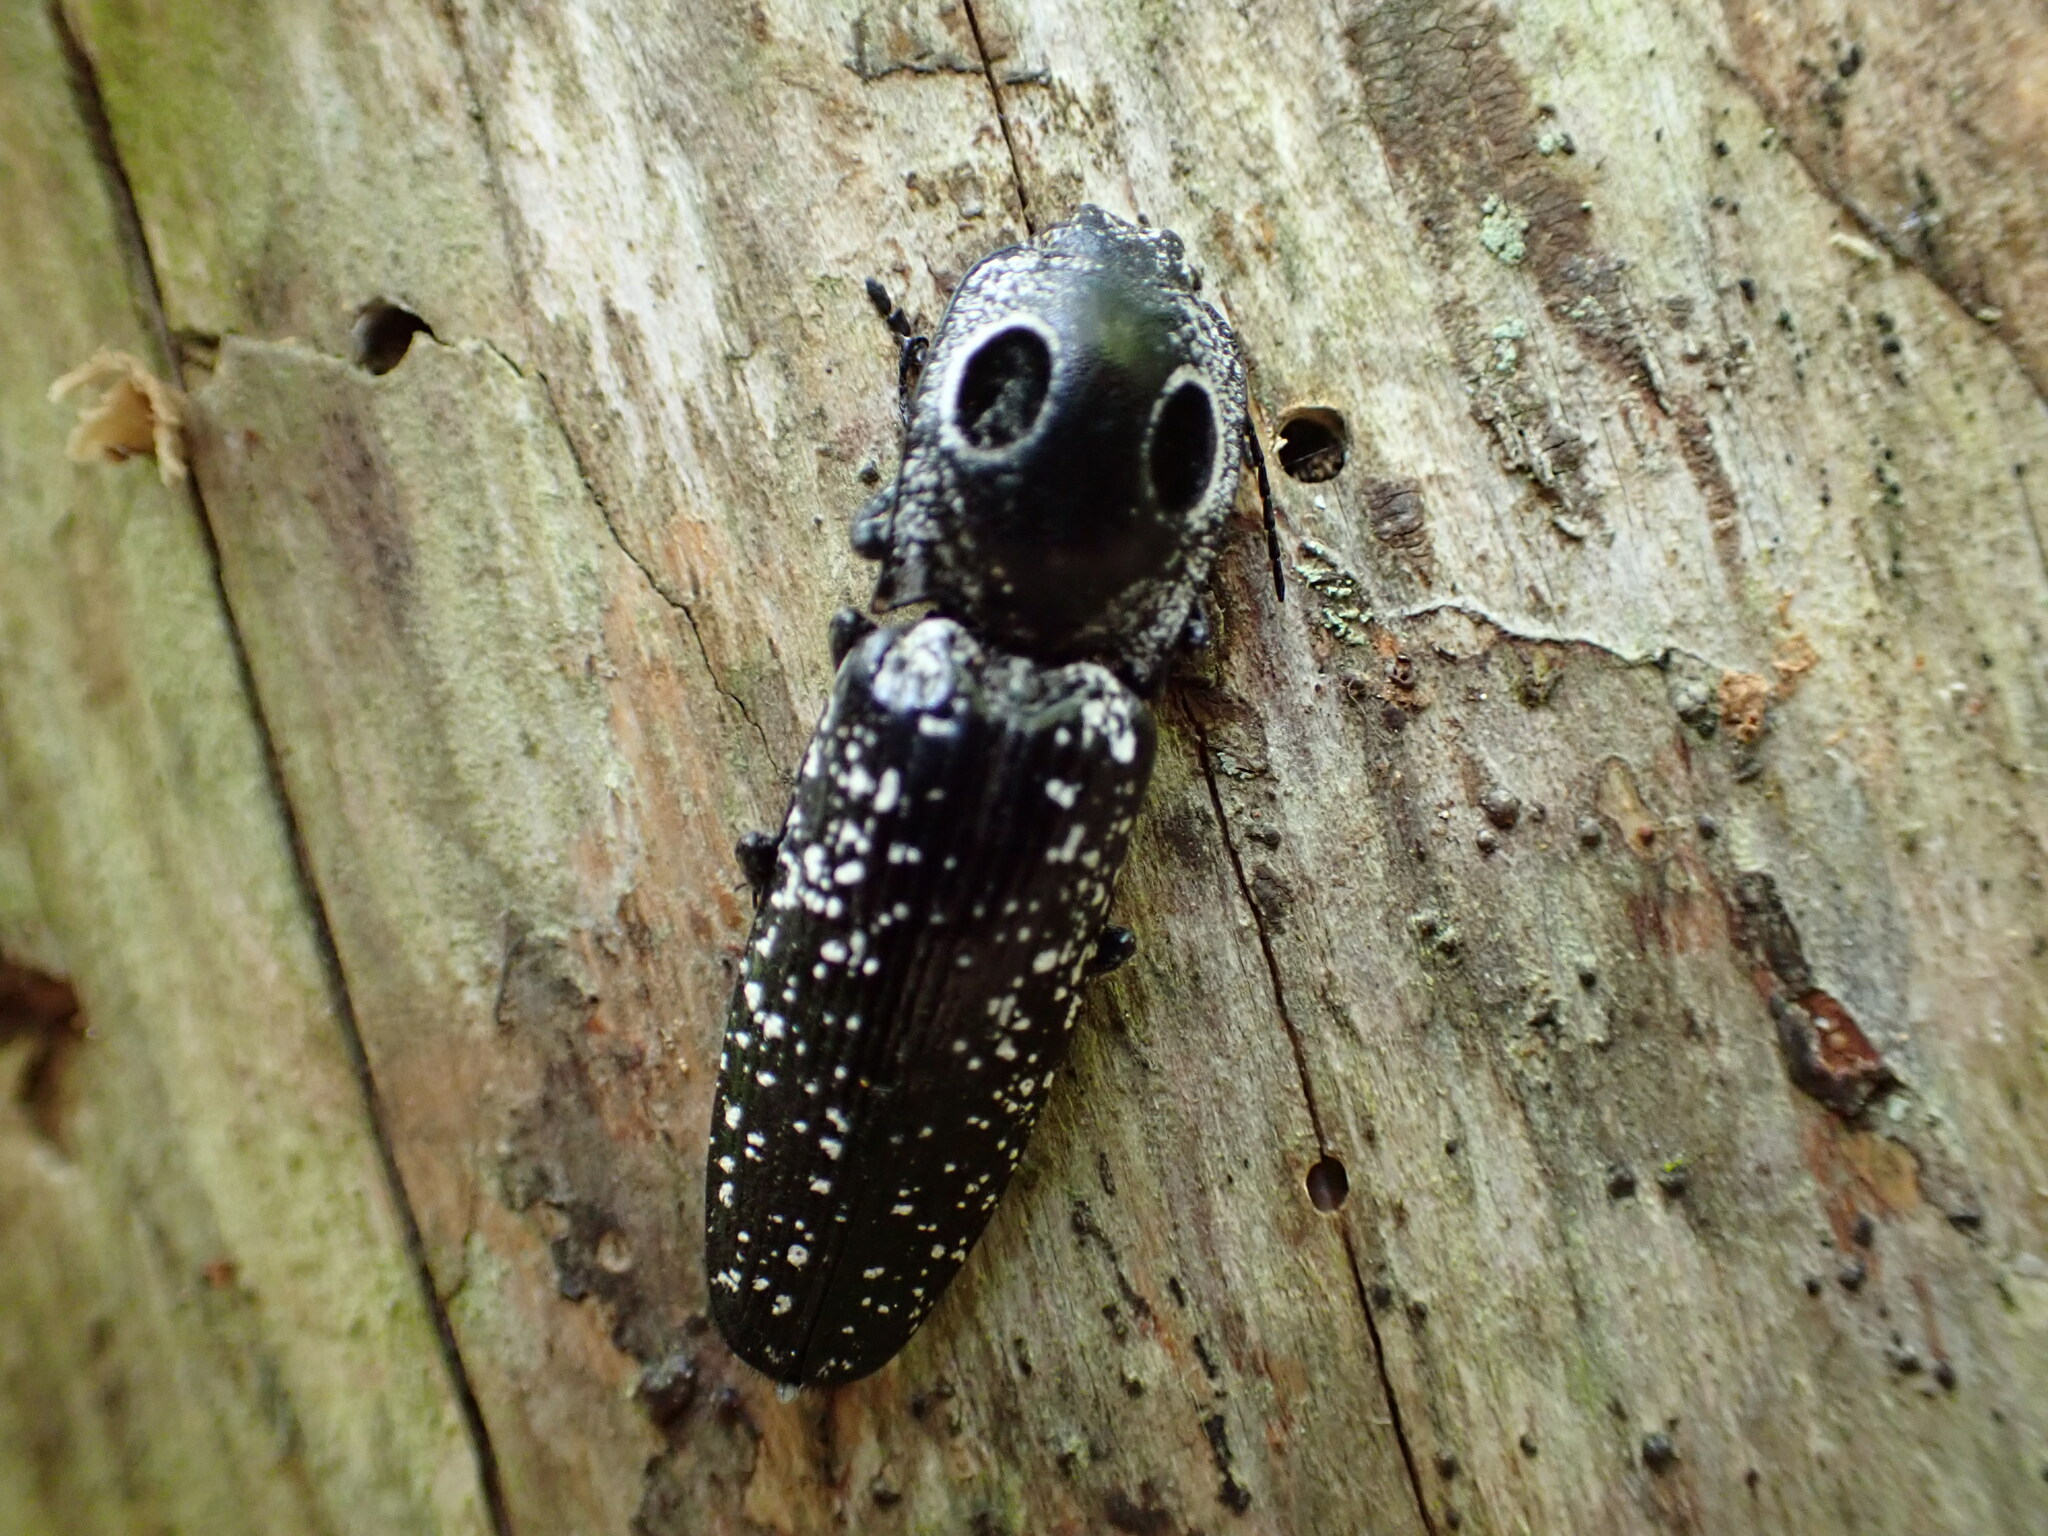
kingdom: Animalia
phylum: Arthropoda
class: Insecta
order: Coleoptera
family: Elateridae
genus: Alaus
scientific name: Alaus oculatus
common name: Eastern eyed click beetle
